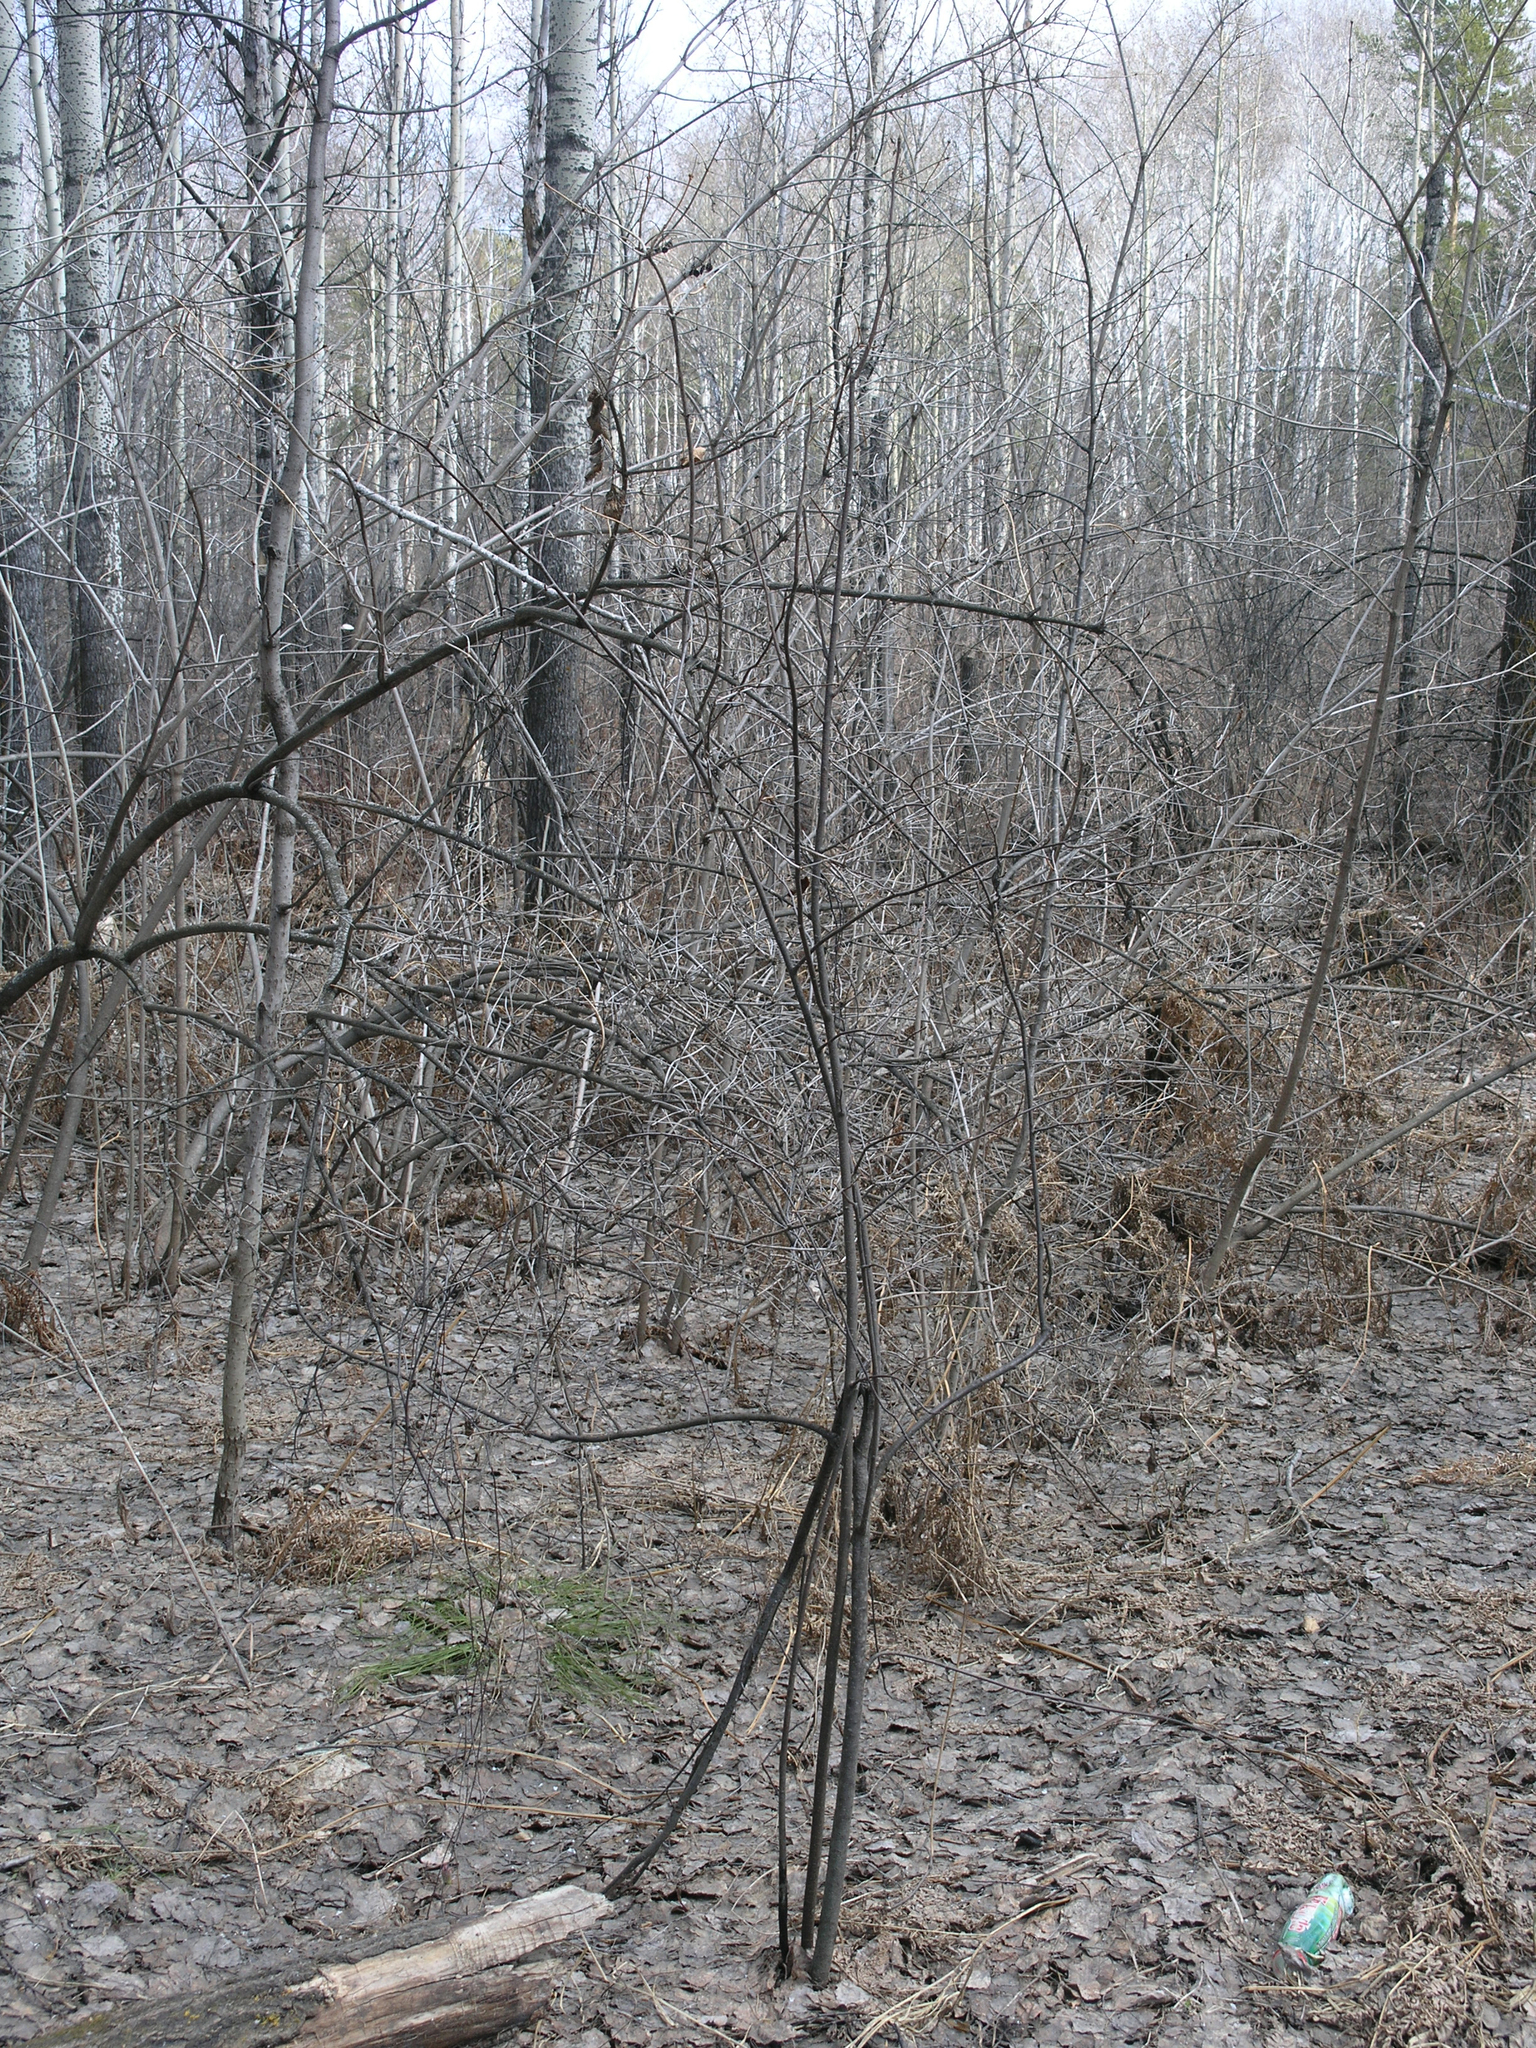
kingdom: Plantae
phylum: Tracheophyta
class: Magnoliopsida
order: Rosales
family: Rosaceae
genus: Prunus
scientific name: Prunus padus
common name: Bird cherry
